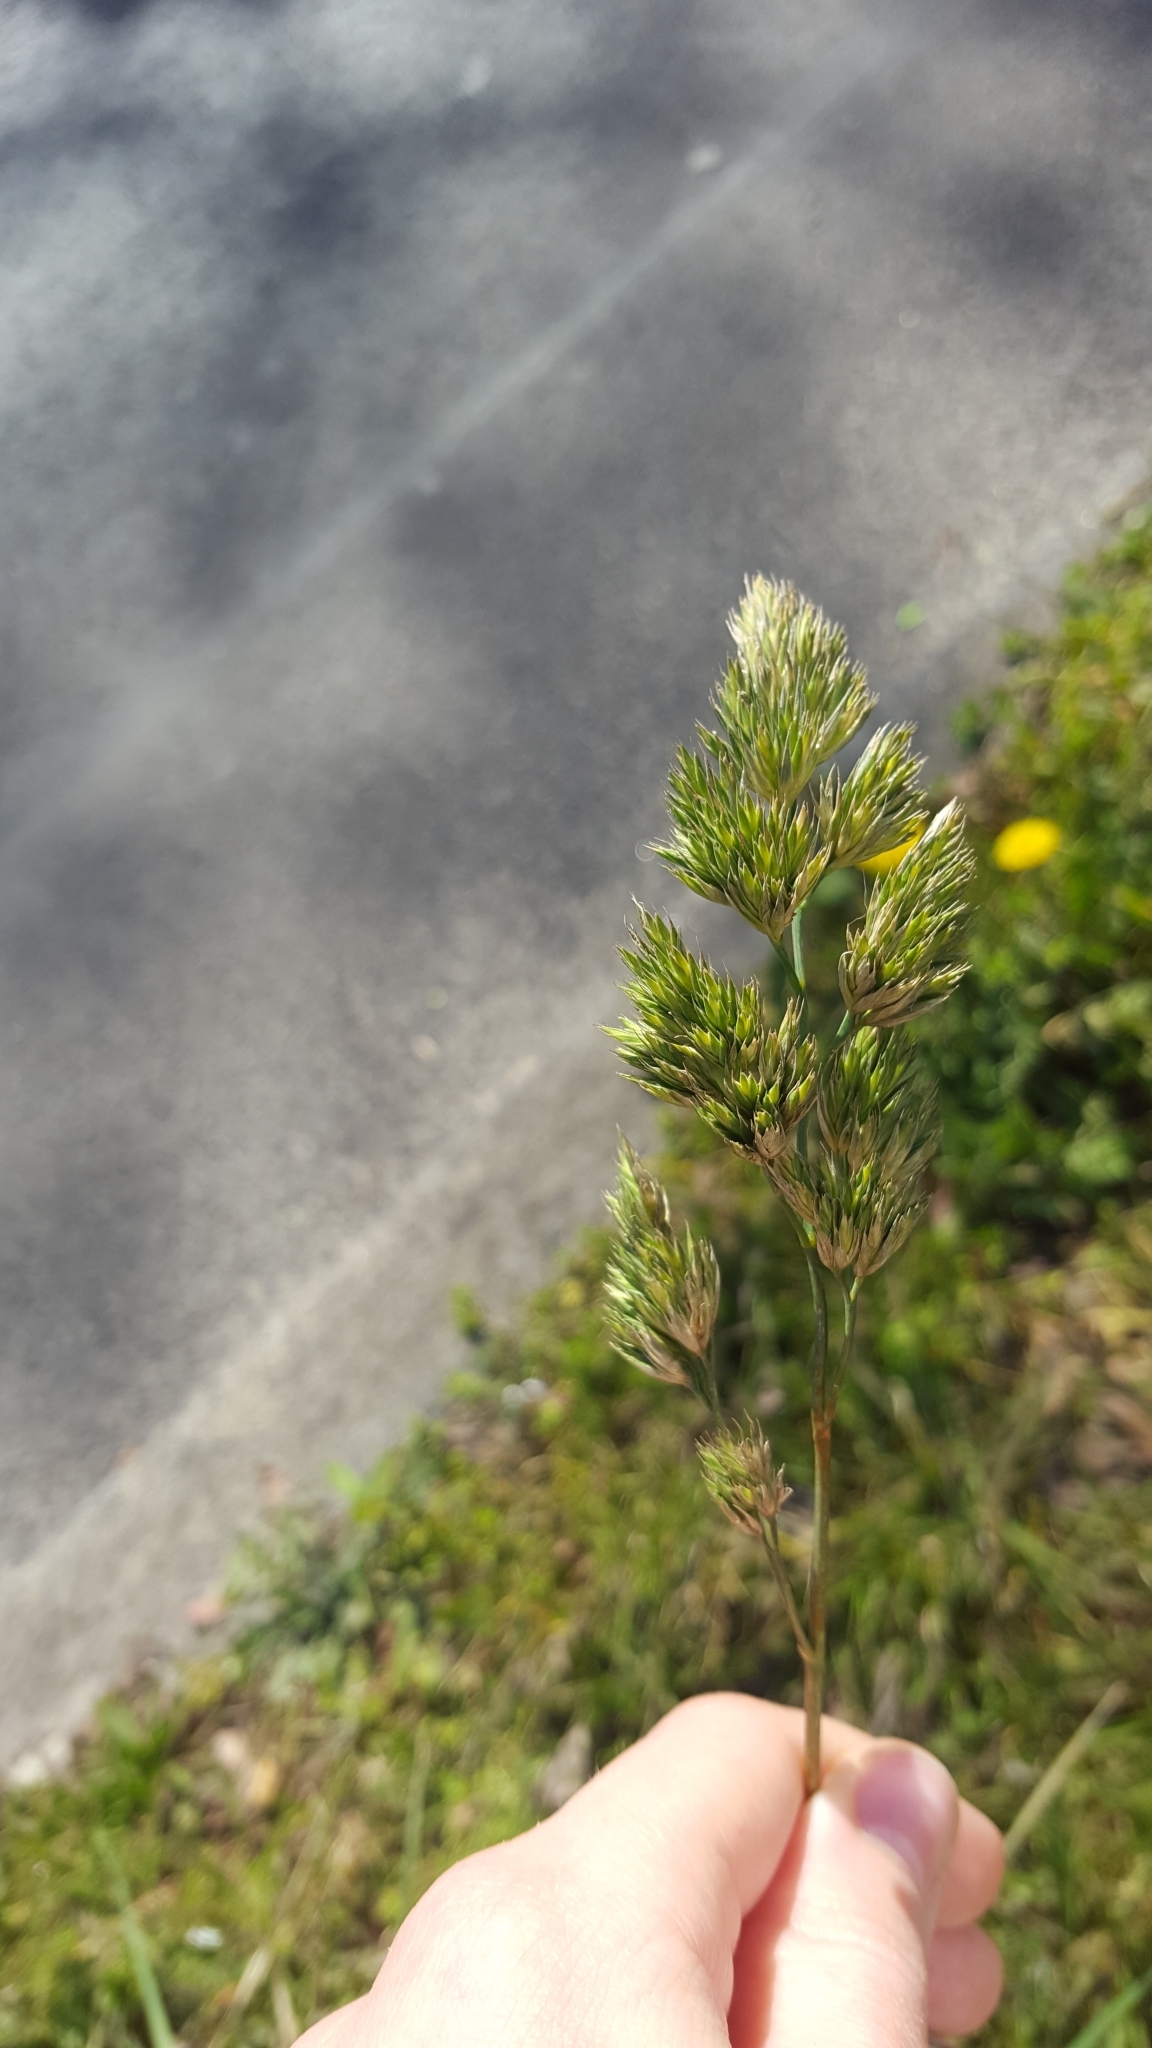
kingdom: Plantae
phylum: Tracheophyta
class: Liliopsida
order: Poales
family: Poaceae
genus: Dactylis
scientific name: Dactylis glomerata
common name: Orchardgrass
